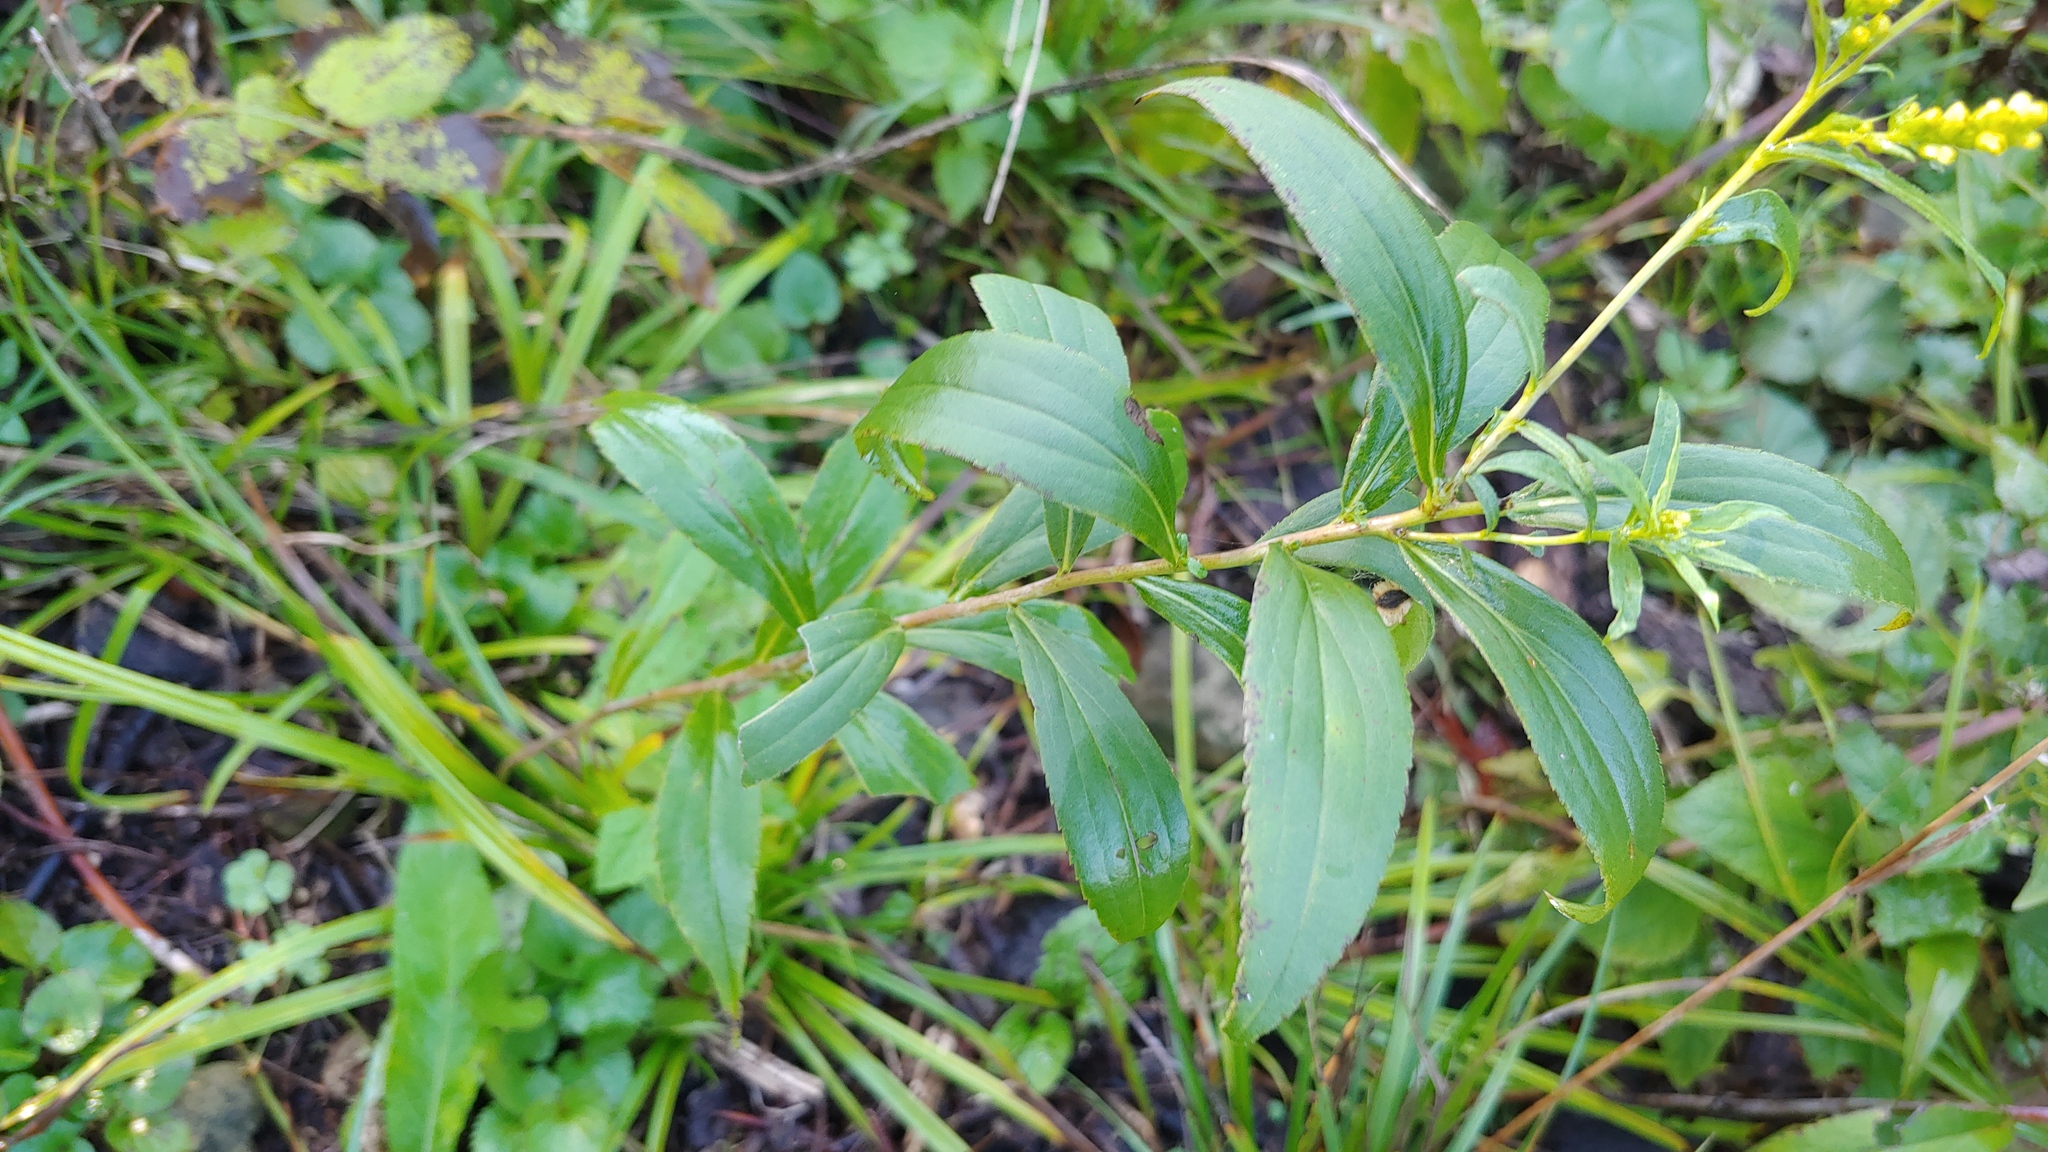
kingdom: Plantae
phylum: Tracheophyta
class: Magnoliopsida
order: Asterales
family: Asteraceae
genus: Solidago
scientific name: Solidago gigantea
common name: Giant goldenrod
